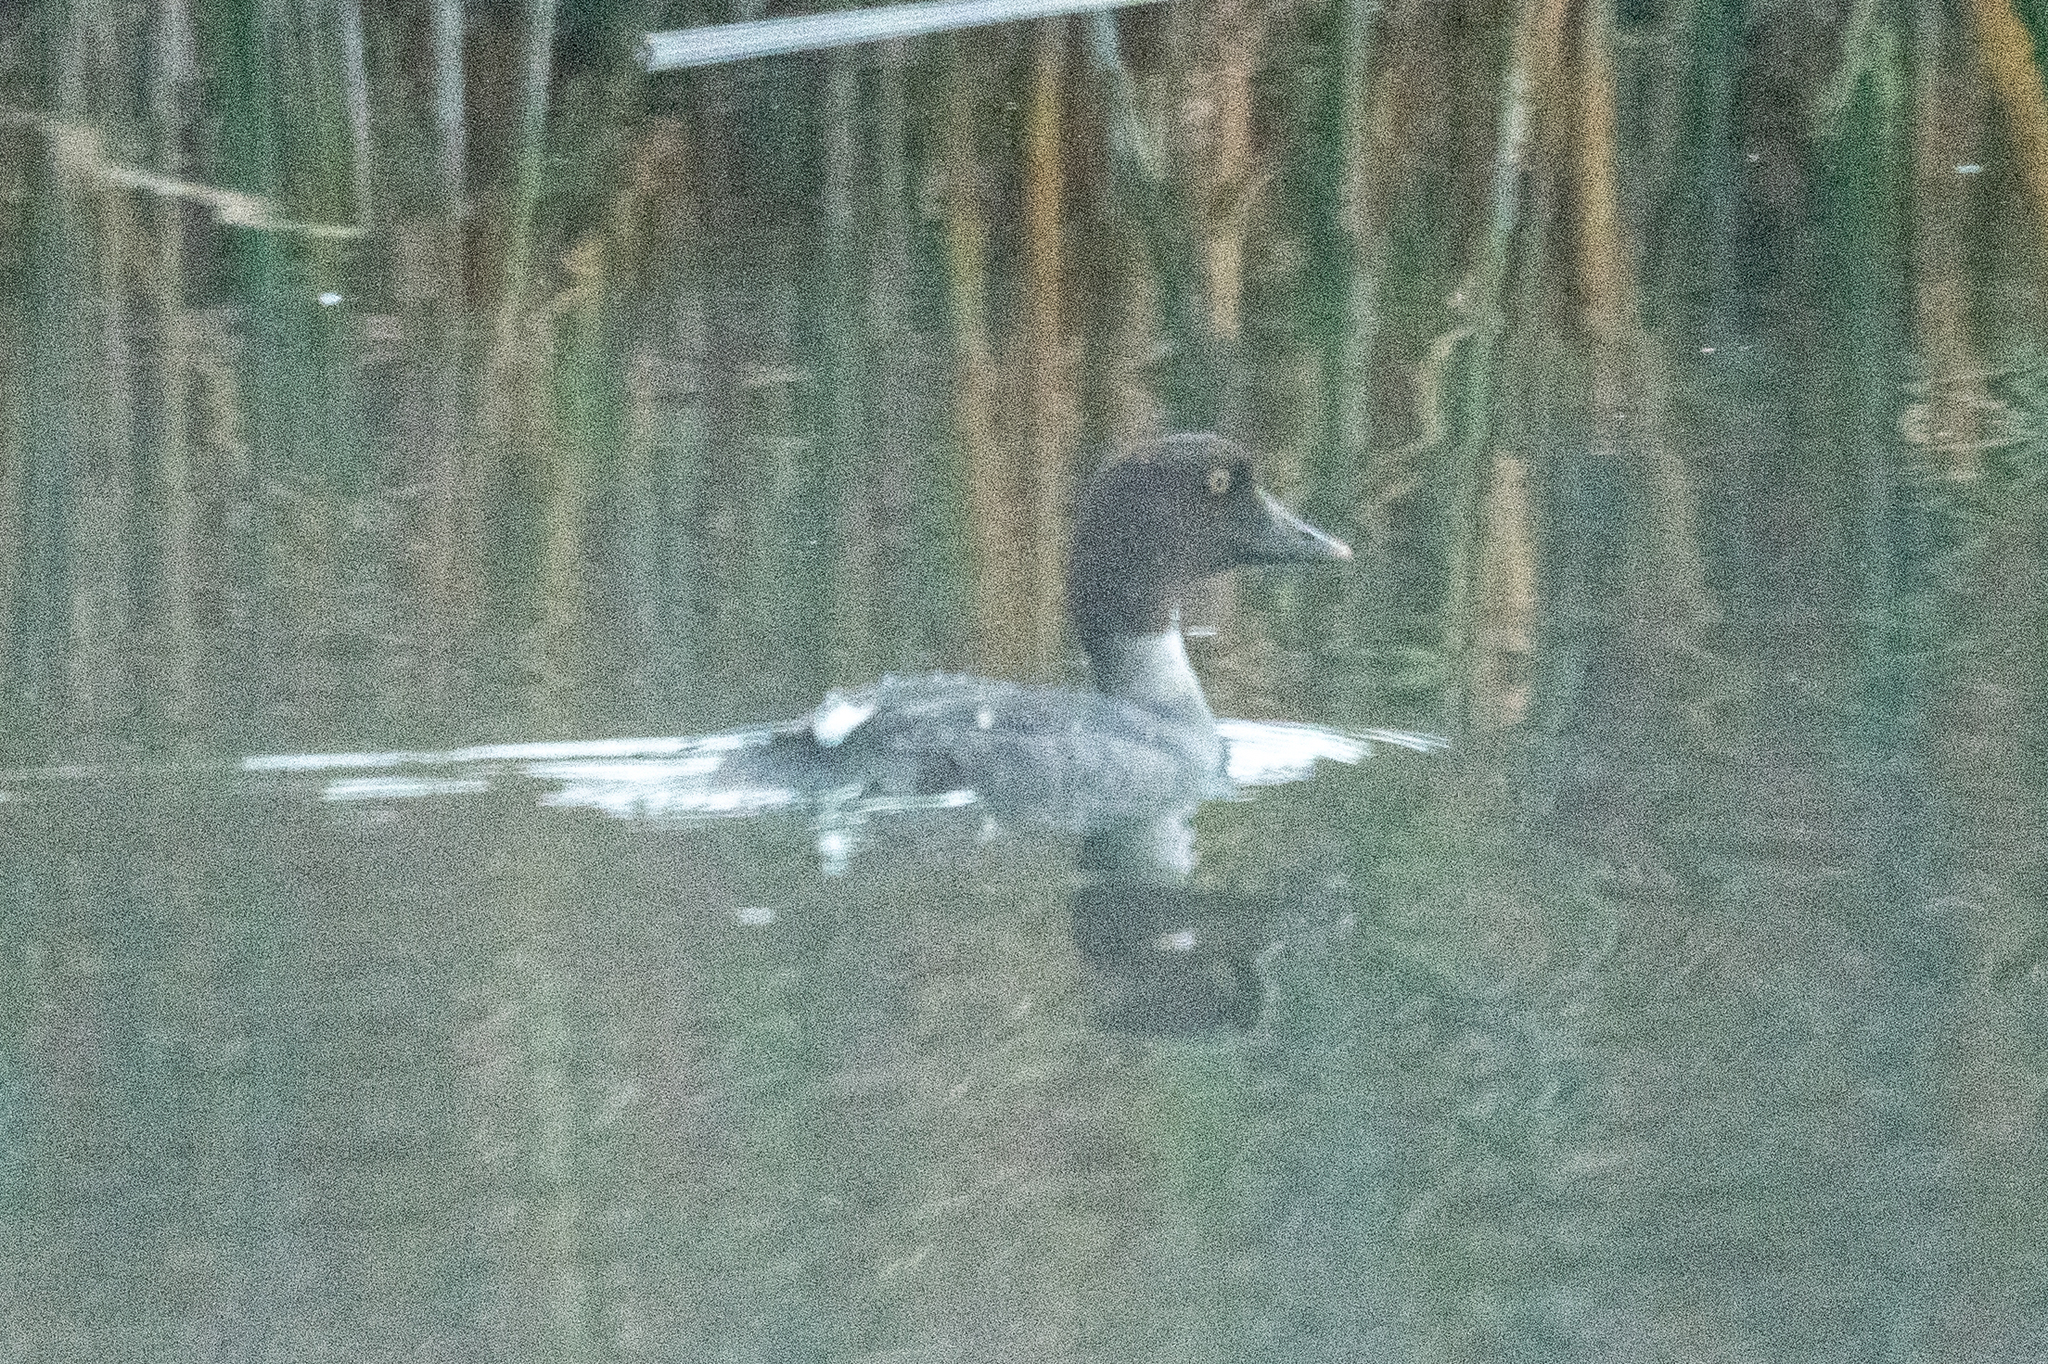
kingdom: Animalia
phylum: Chordata
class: Aves
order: Anseriformes
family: Anatidae
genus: Bucephala
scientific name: Bucephala clangula
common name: Common goldeneye
